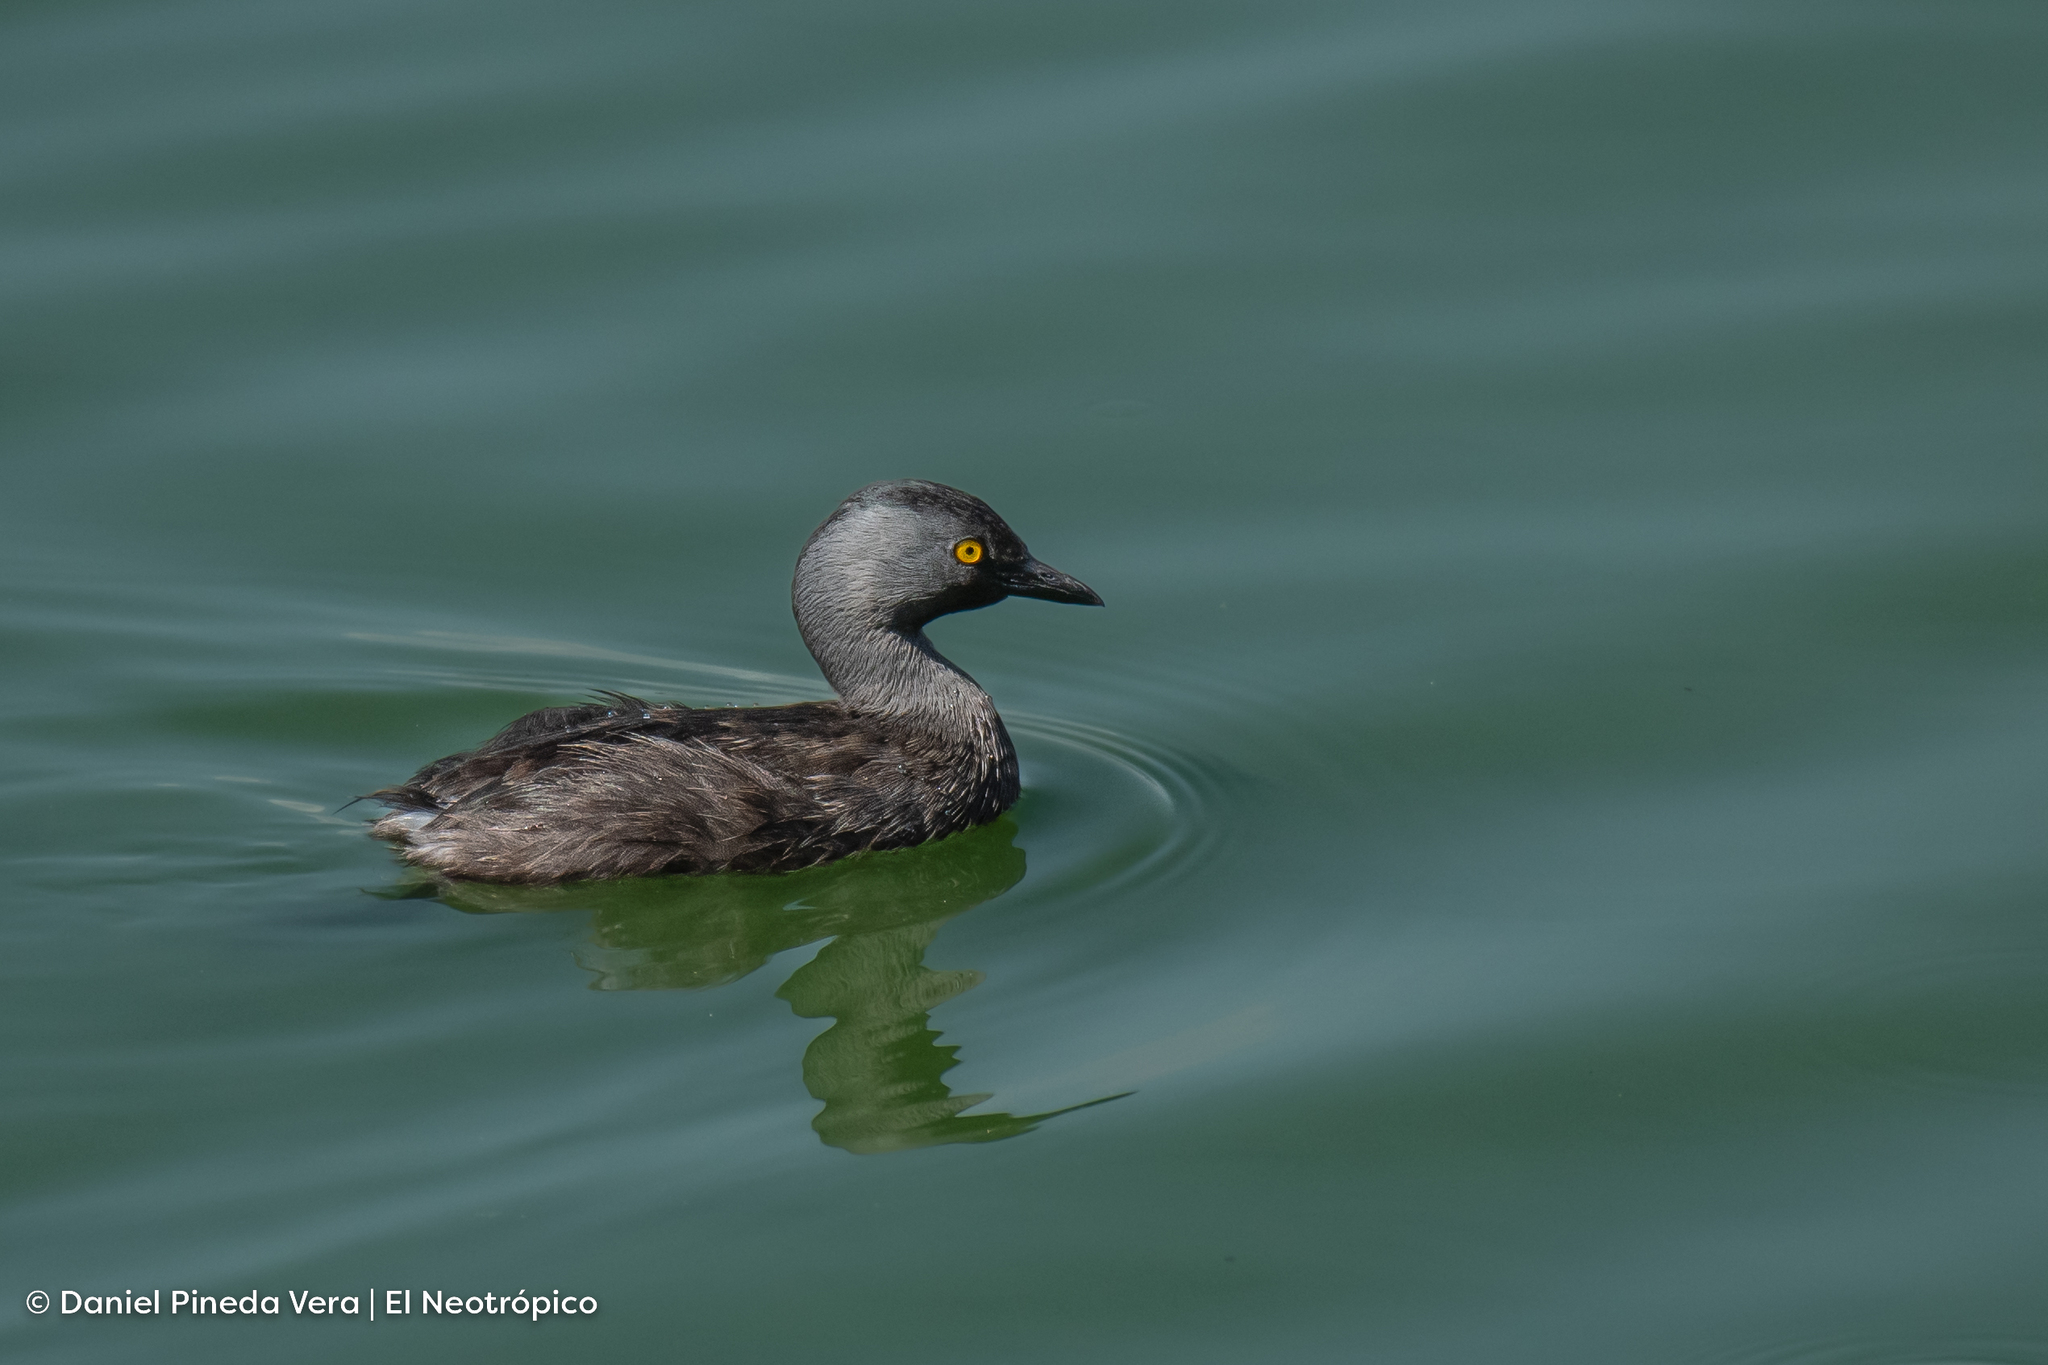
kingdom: Animalia
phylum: Chordata
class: Aves
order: Podicipediformes
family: Podicipedidae
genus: Tachybaptus
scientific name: Tachybaptus dominicus
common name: Least grebe
